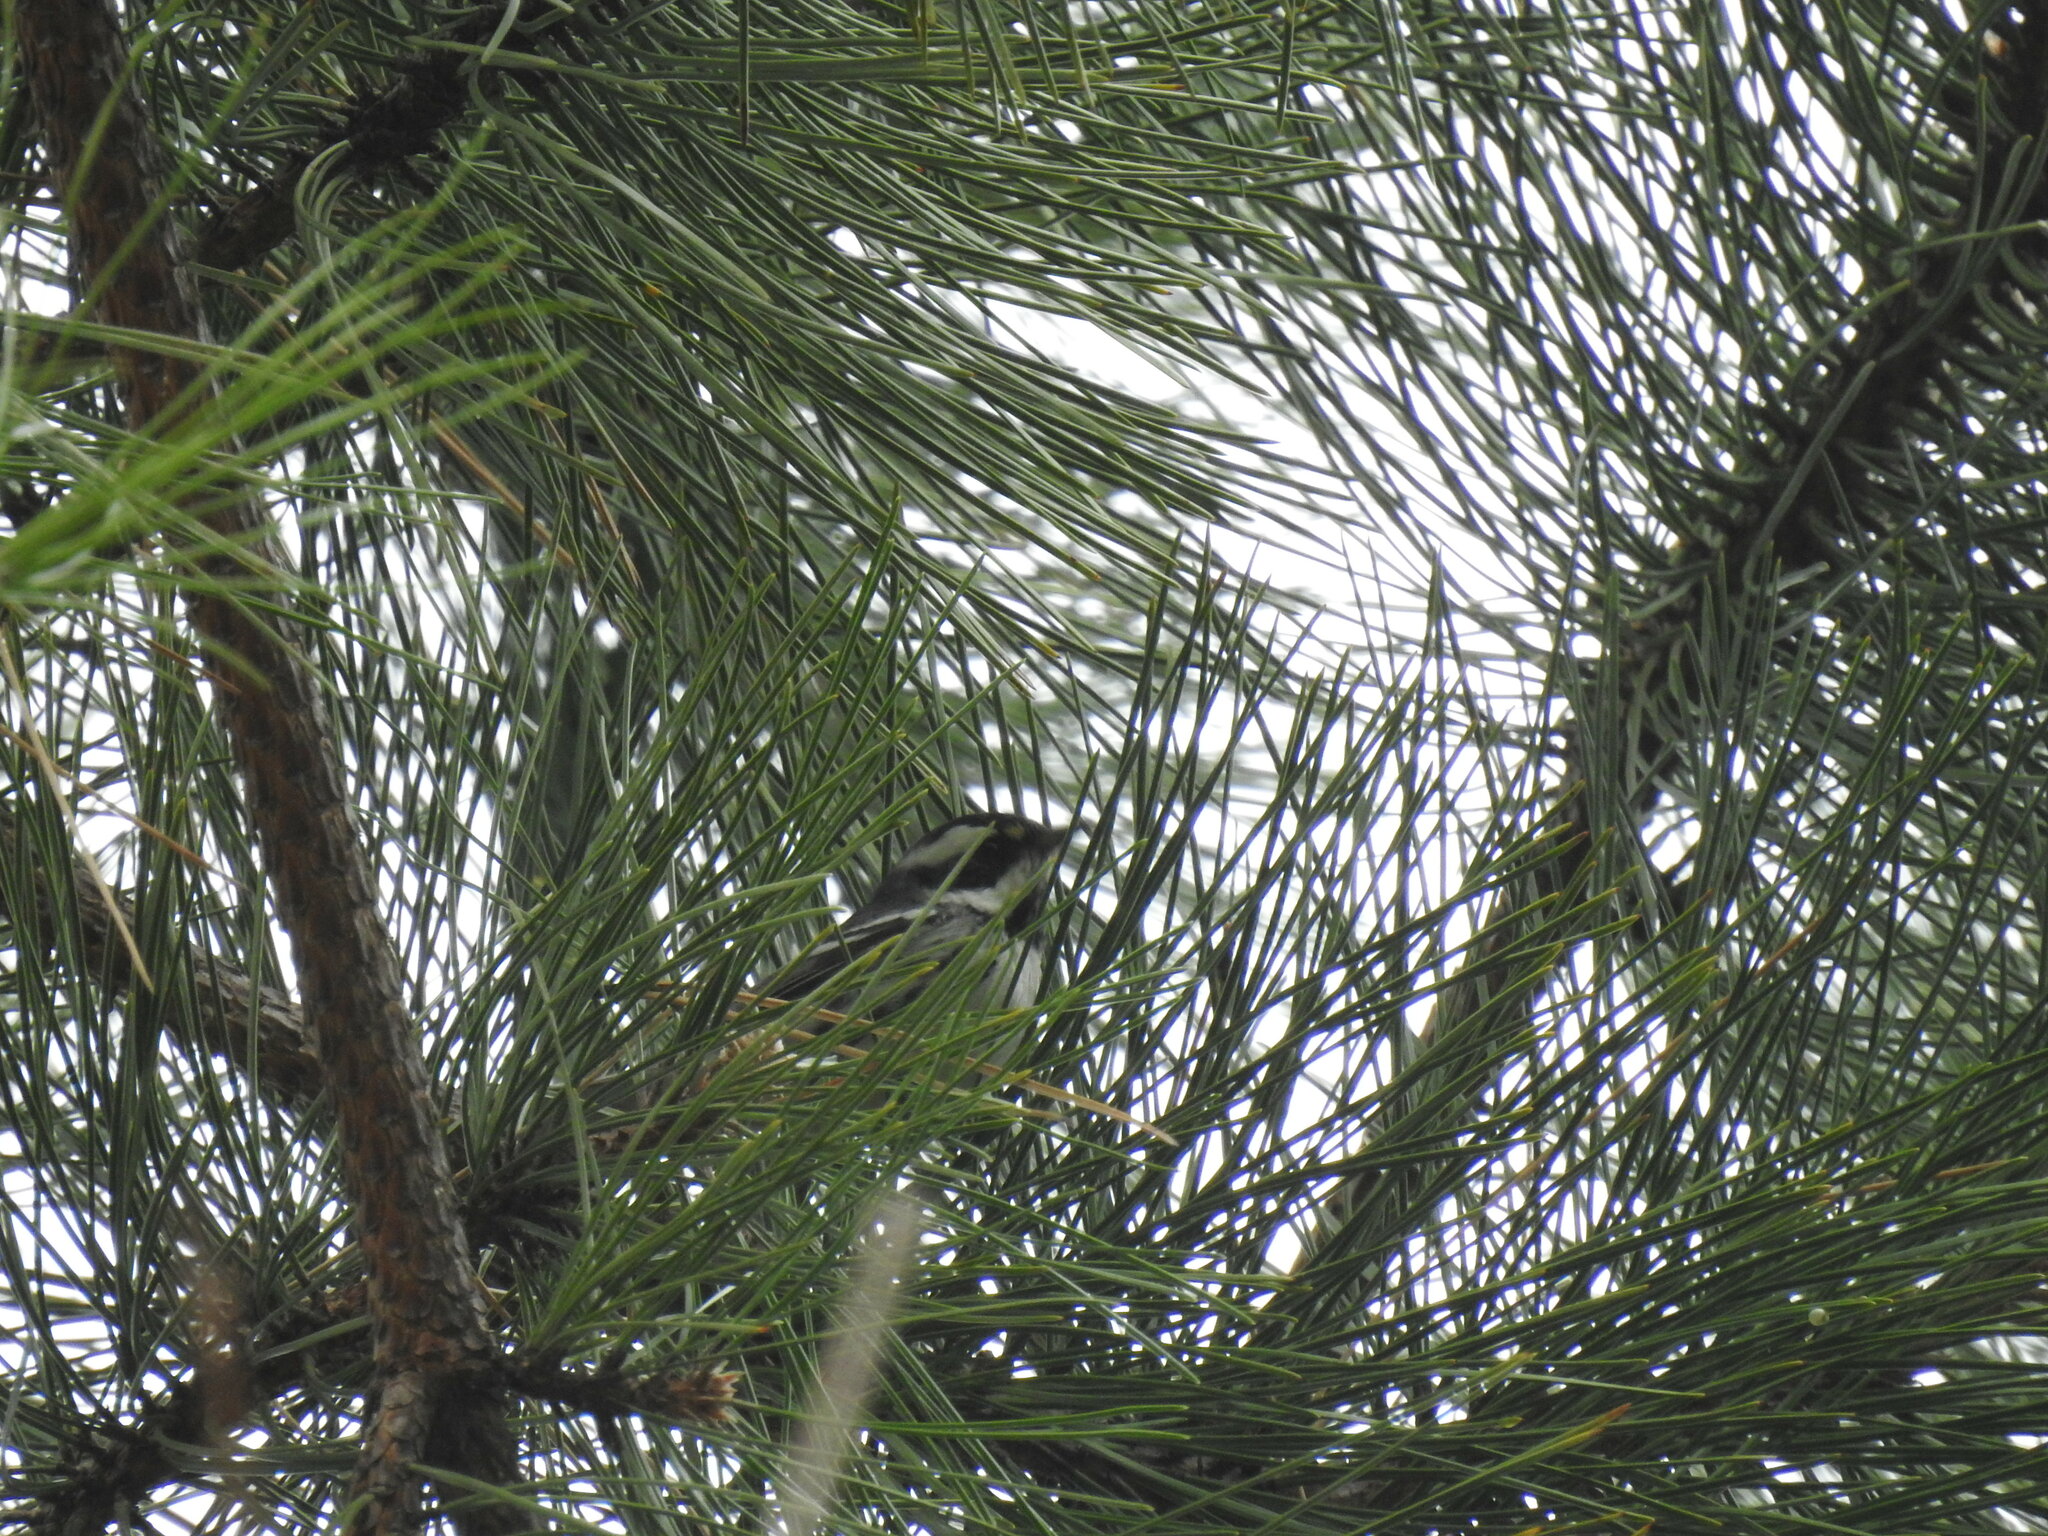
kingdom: Animalia
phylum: Chordata
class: Aves
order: Passeriformes
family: Parulidae
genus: Setophaga
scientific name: Setophaga nigrescens
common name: Black-throated gray warbler
